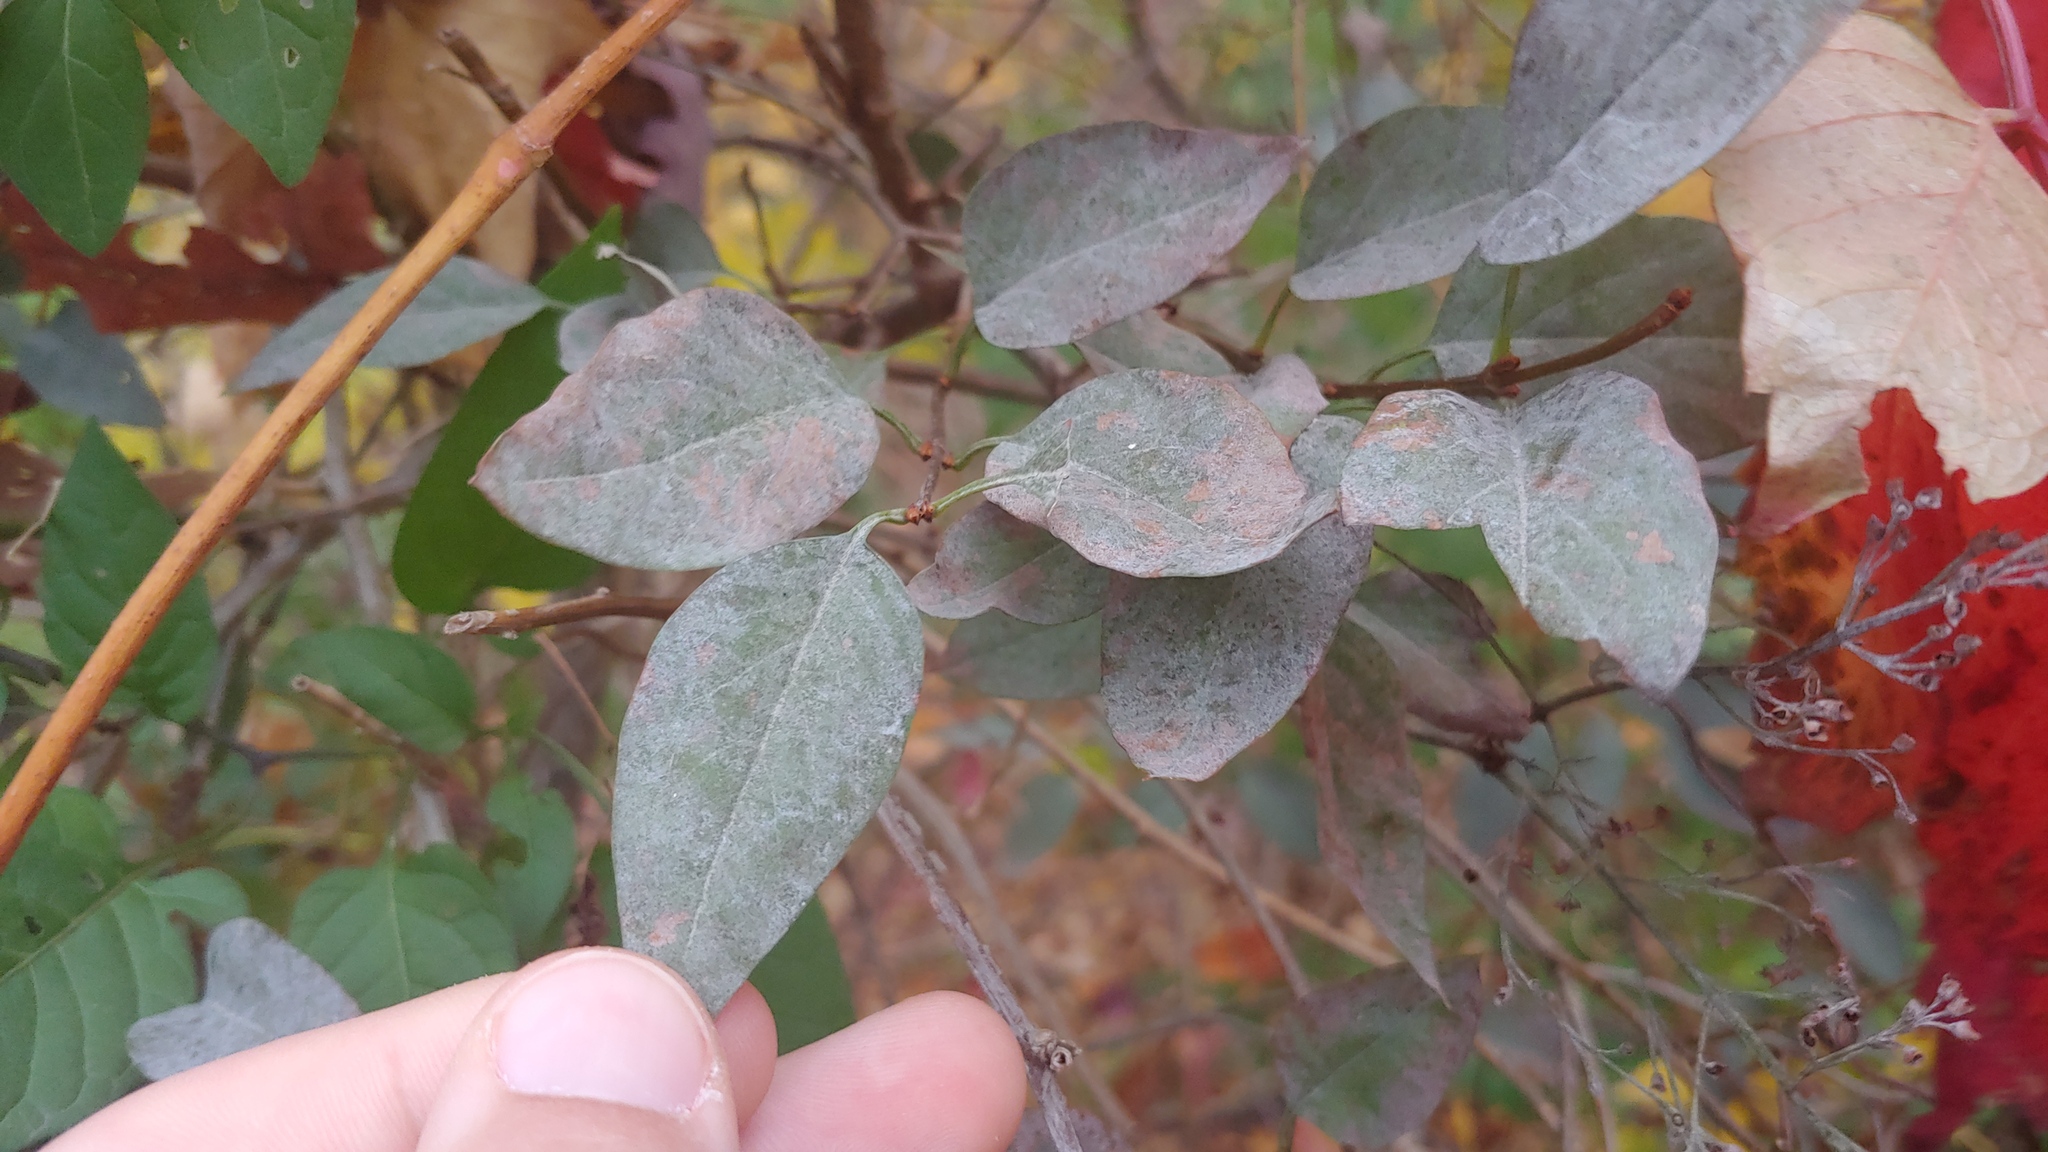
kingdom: Fungi
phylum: Ascomycota
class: Leotiomycetes
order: Helotiales
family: Erysiphaceae
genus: Erysiphe
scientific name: Erysiphe syringae
